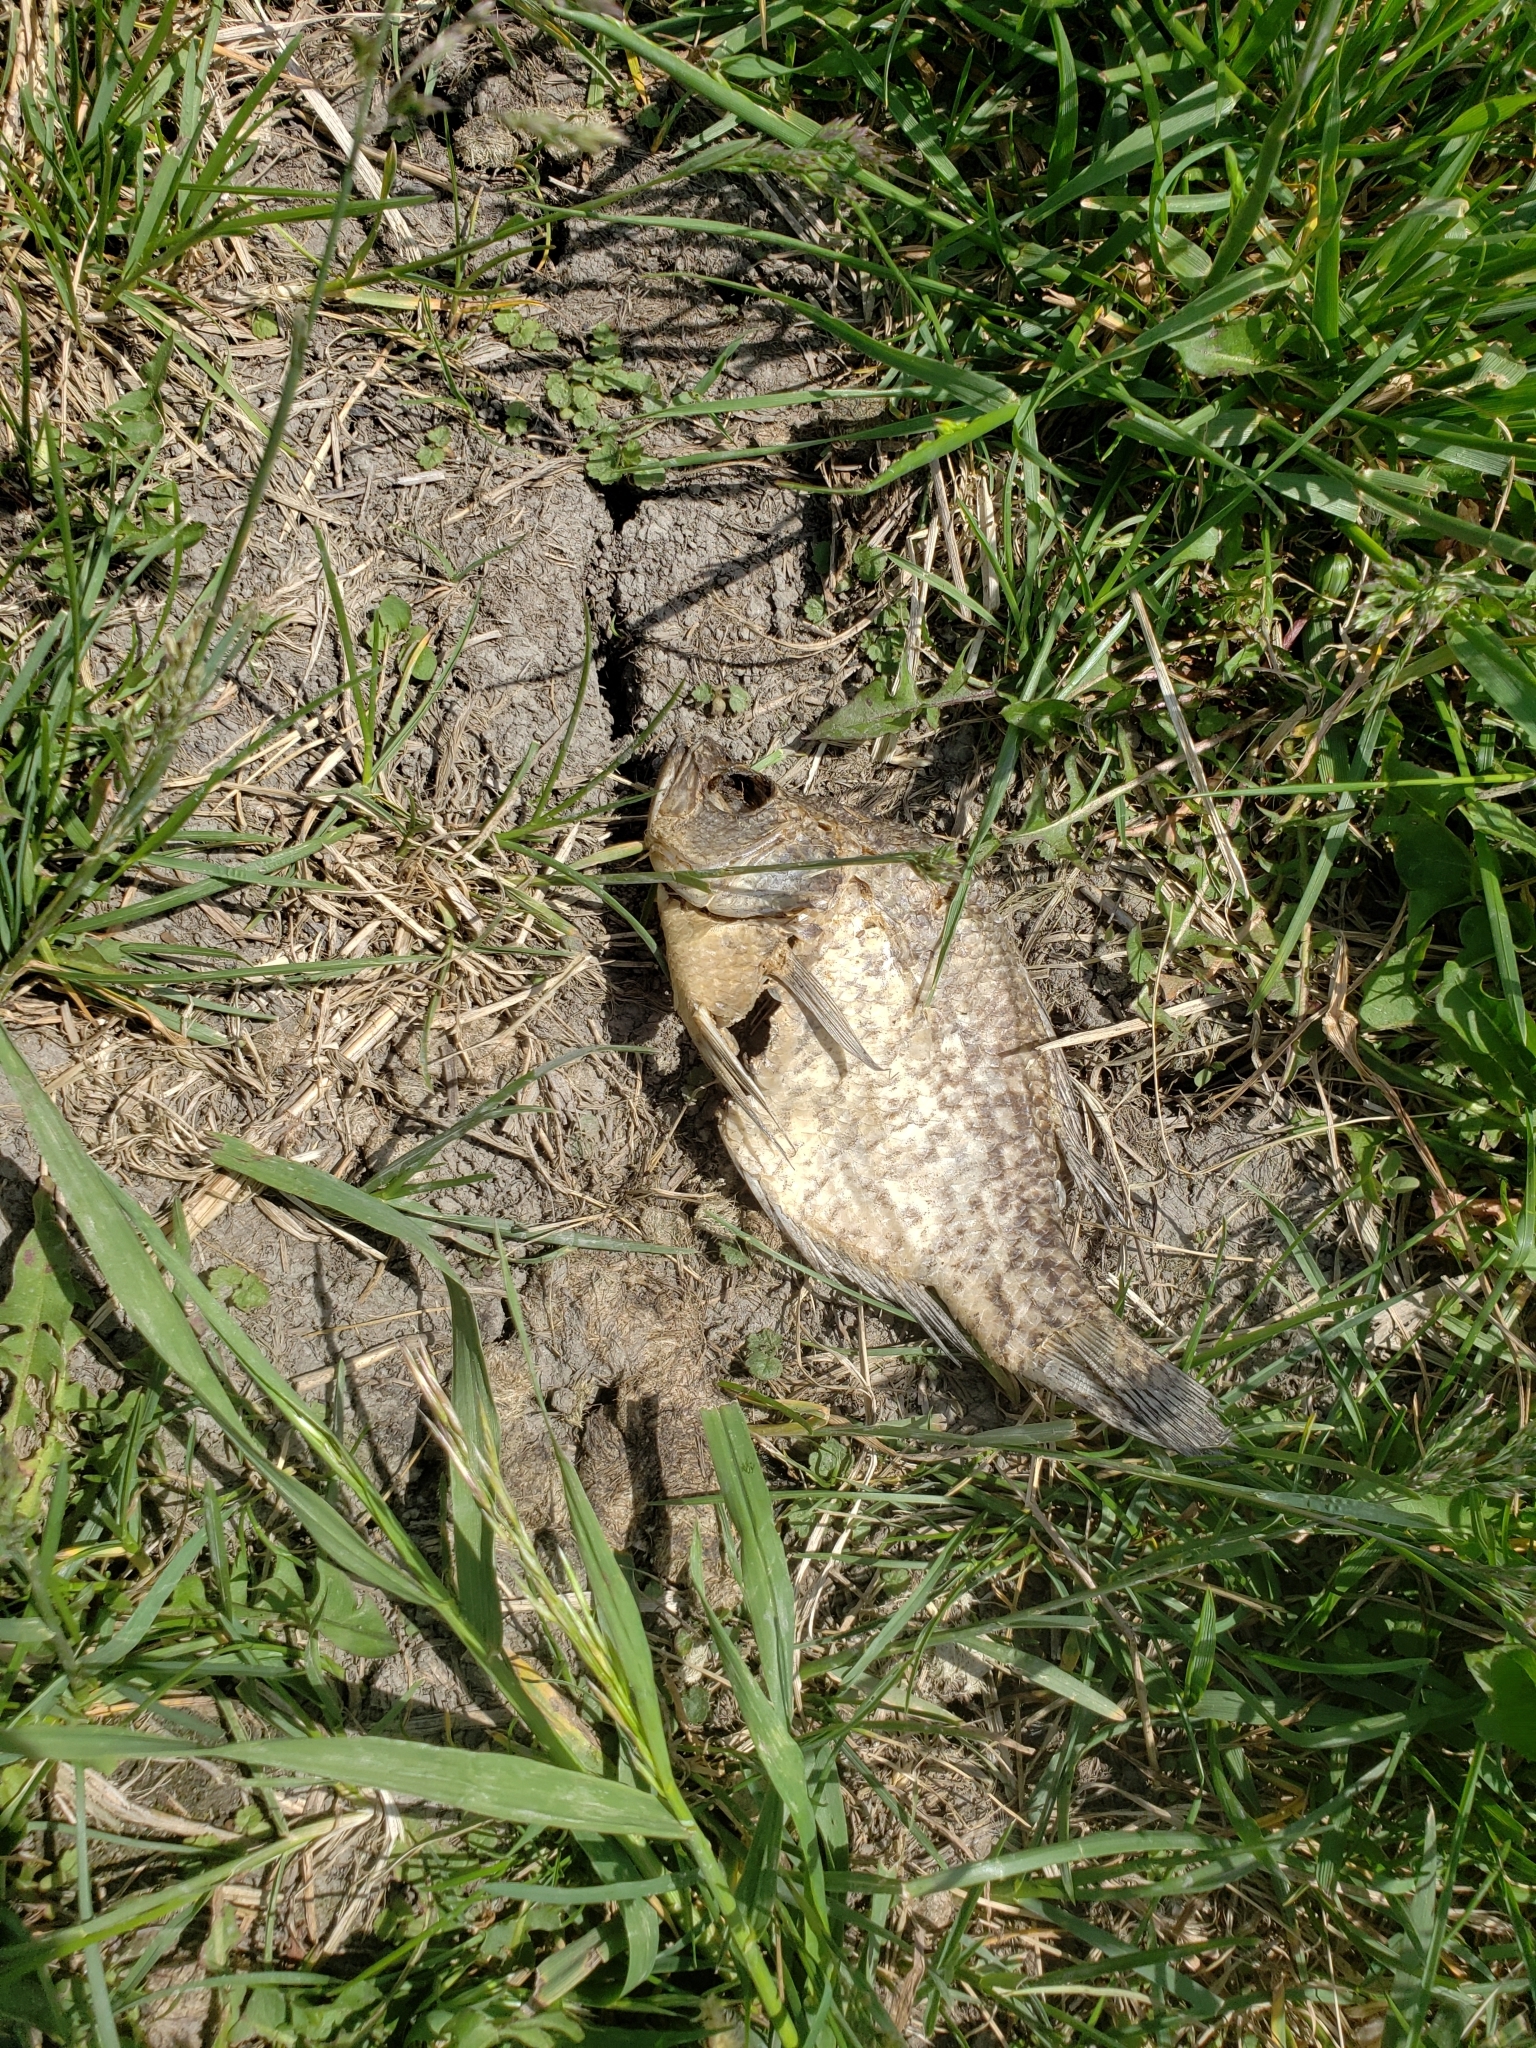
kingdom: Animalia
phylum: Chordata
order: Perciformes
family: Centrarchidae
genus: Pomoxis
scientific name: Pomoxis nigromaculatus
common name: Black crappie
